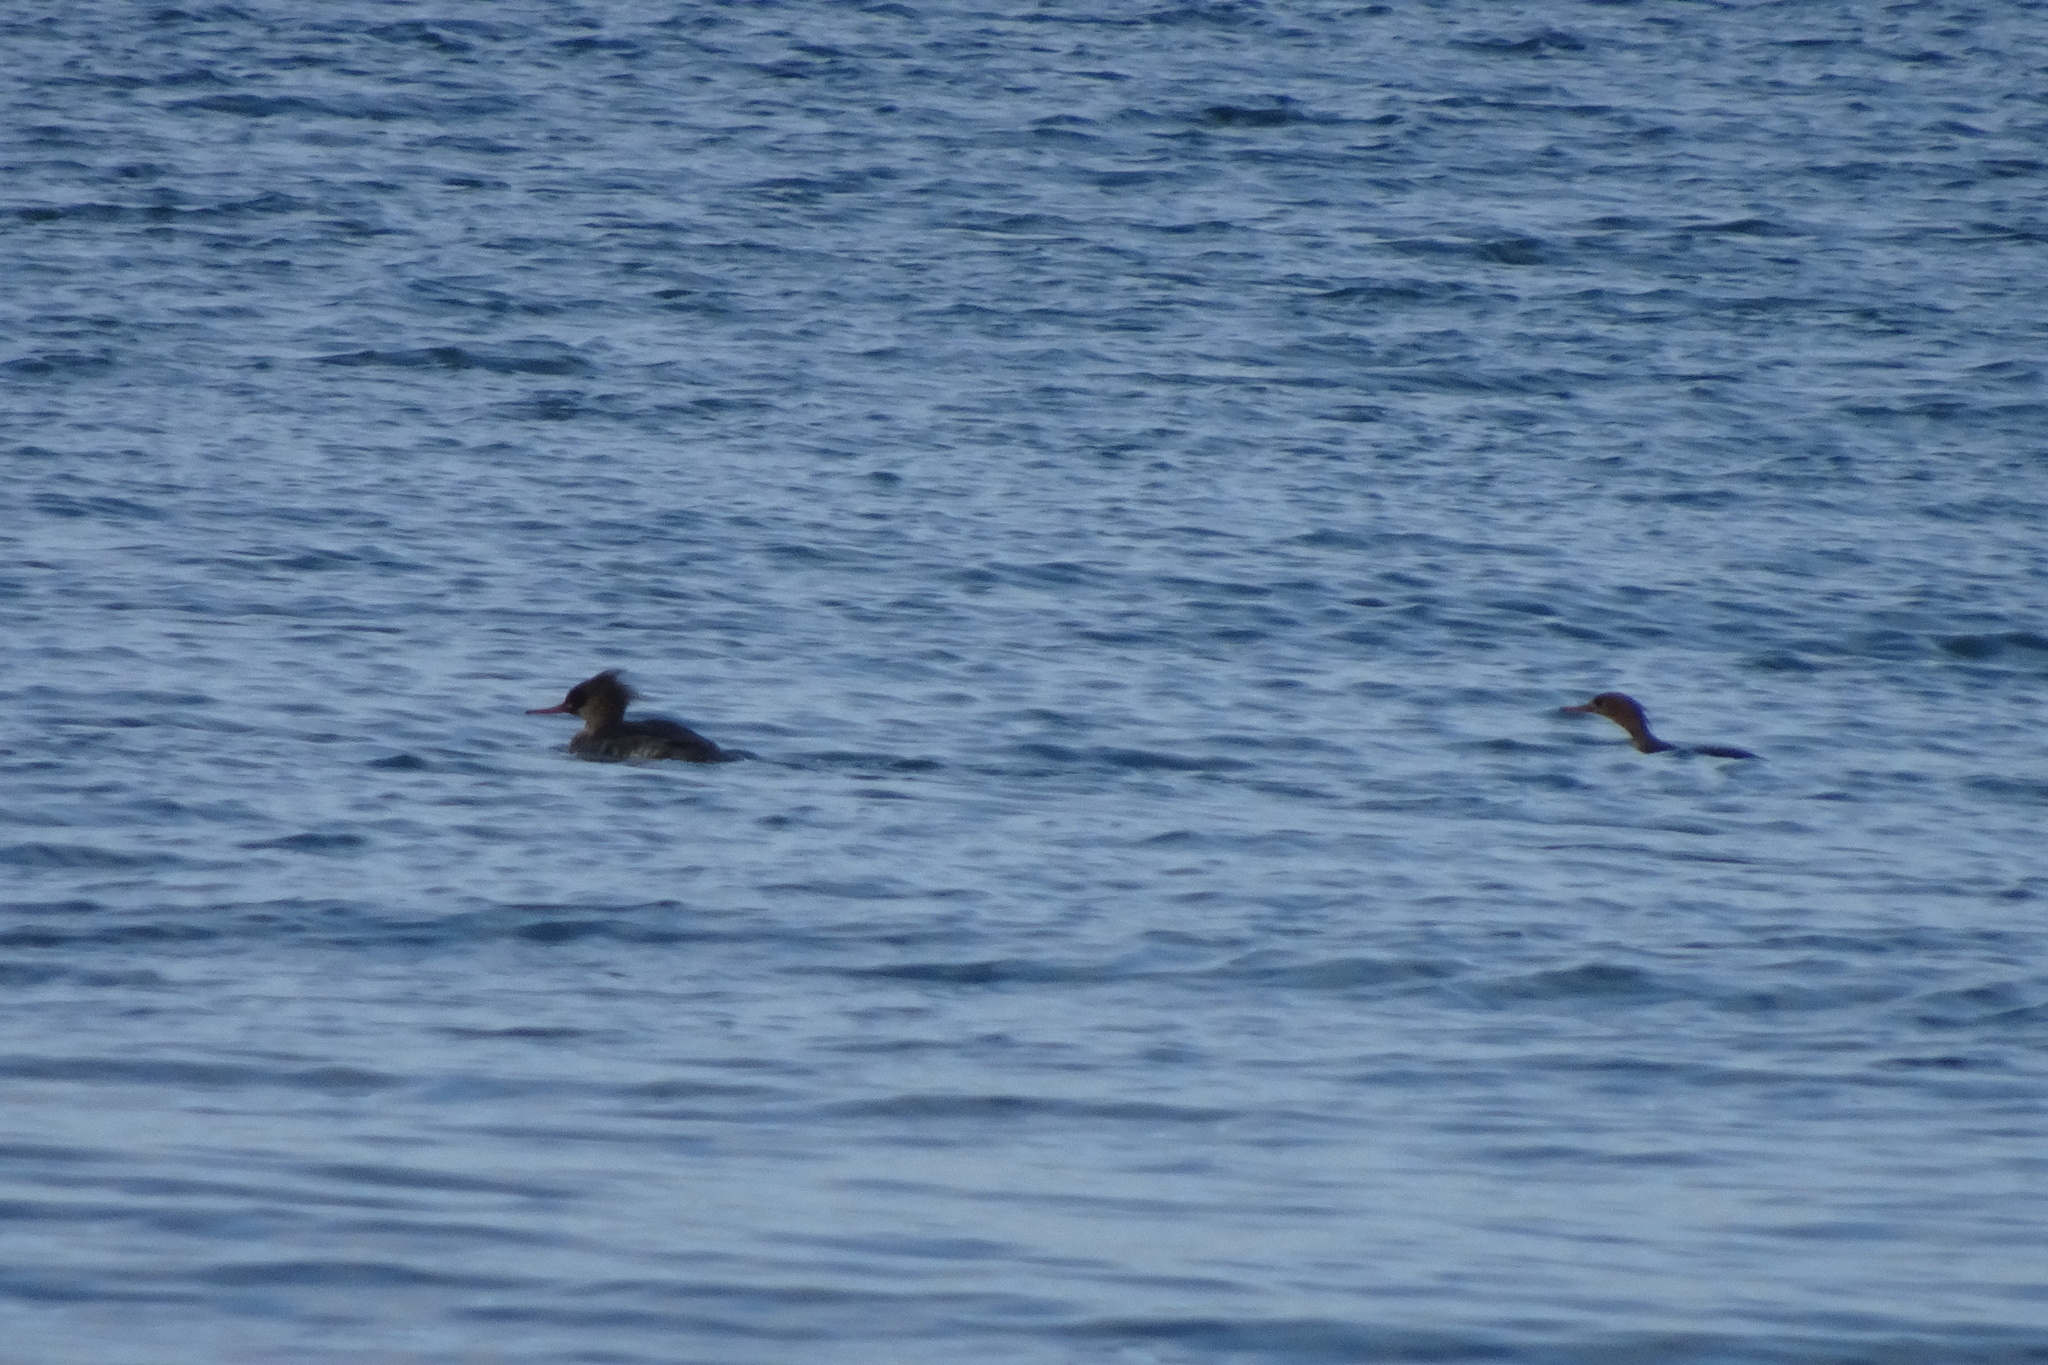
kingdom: Animalia
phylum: Chordata
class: Aves
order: Anseriformes
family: Anatidae
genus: Mergus
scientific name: Mergus serrator
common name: Red-breasted merganser
